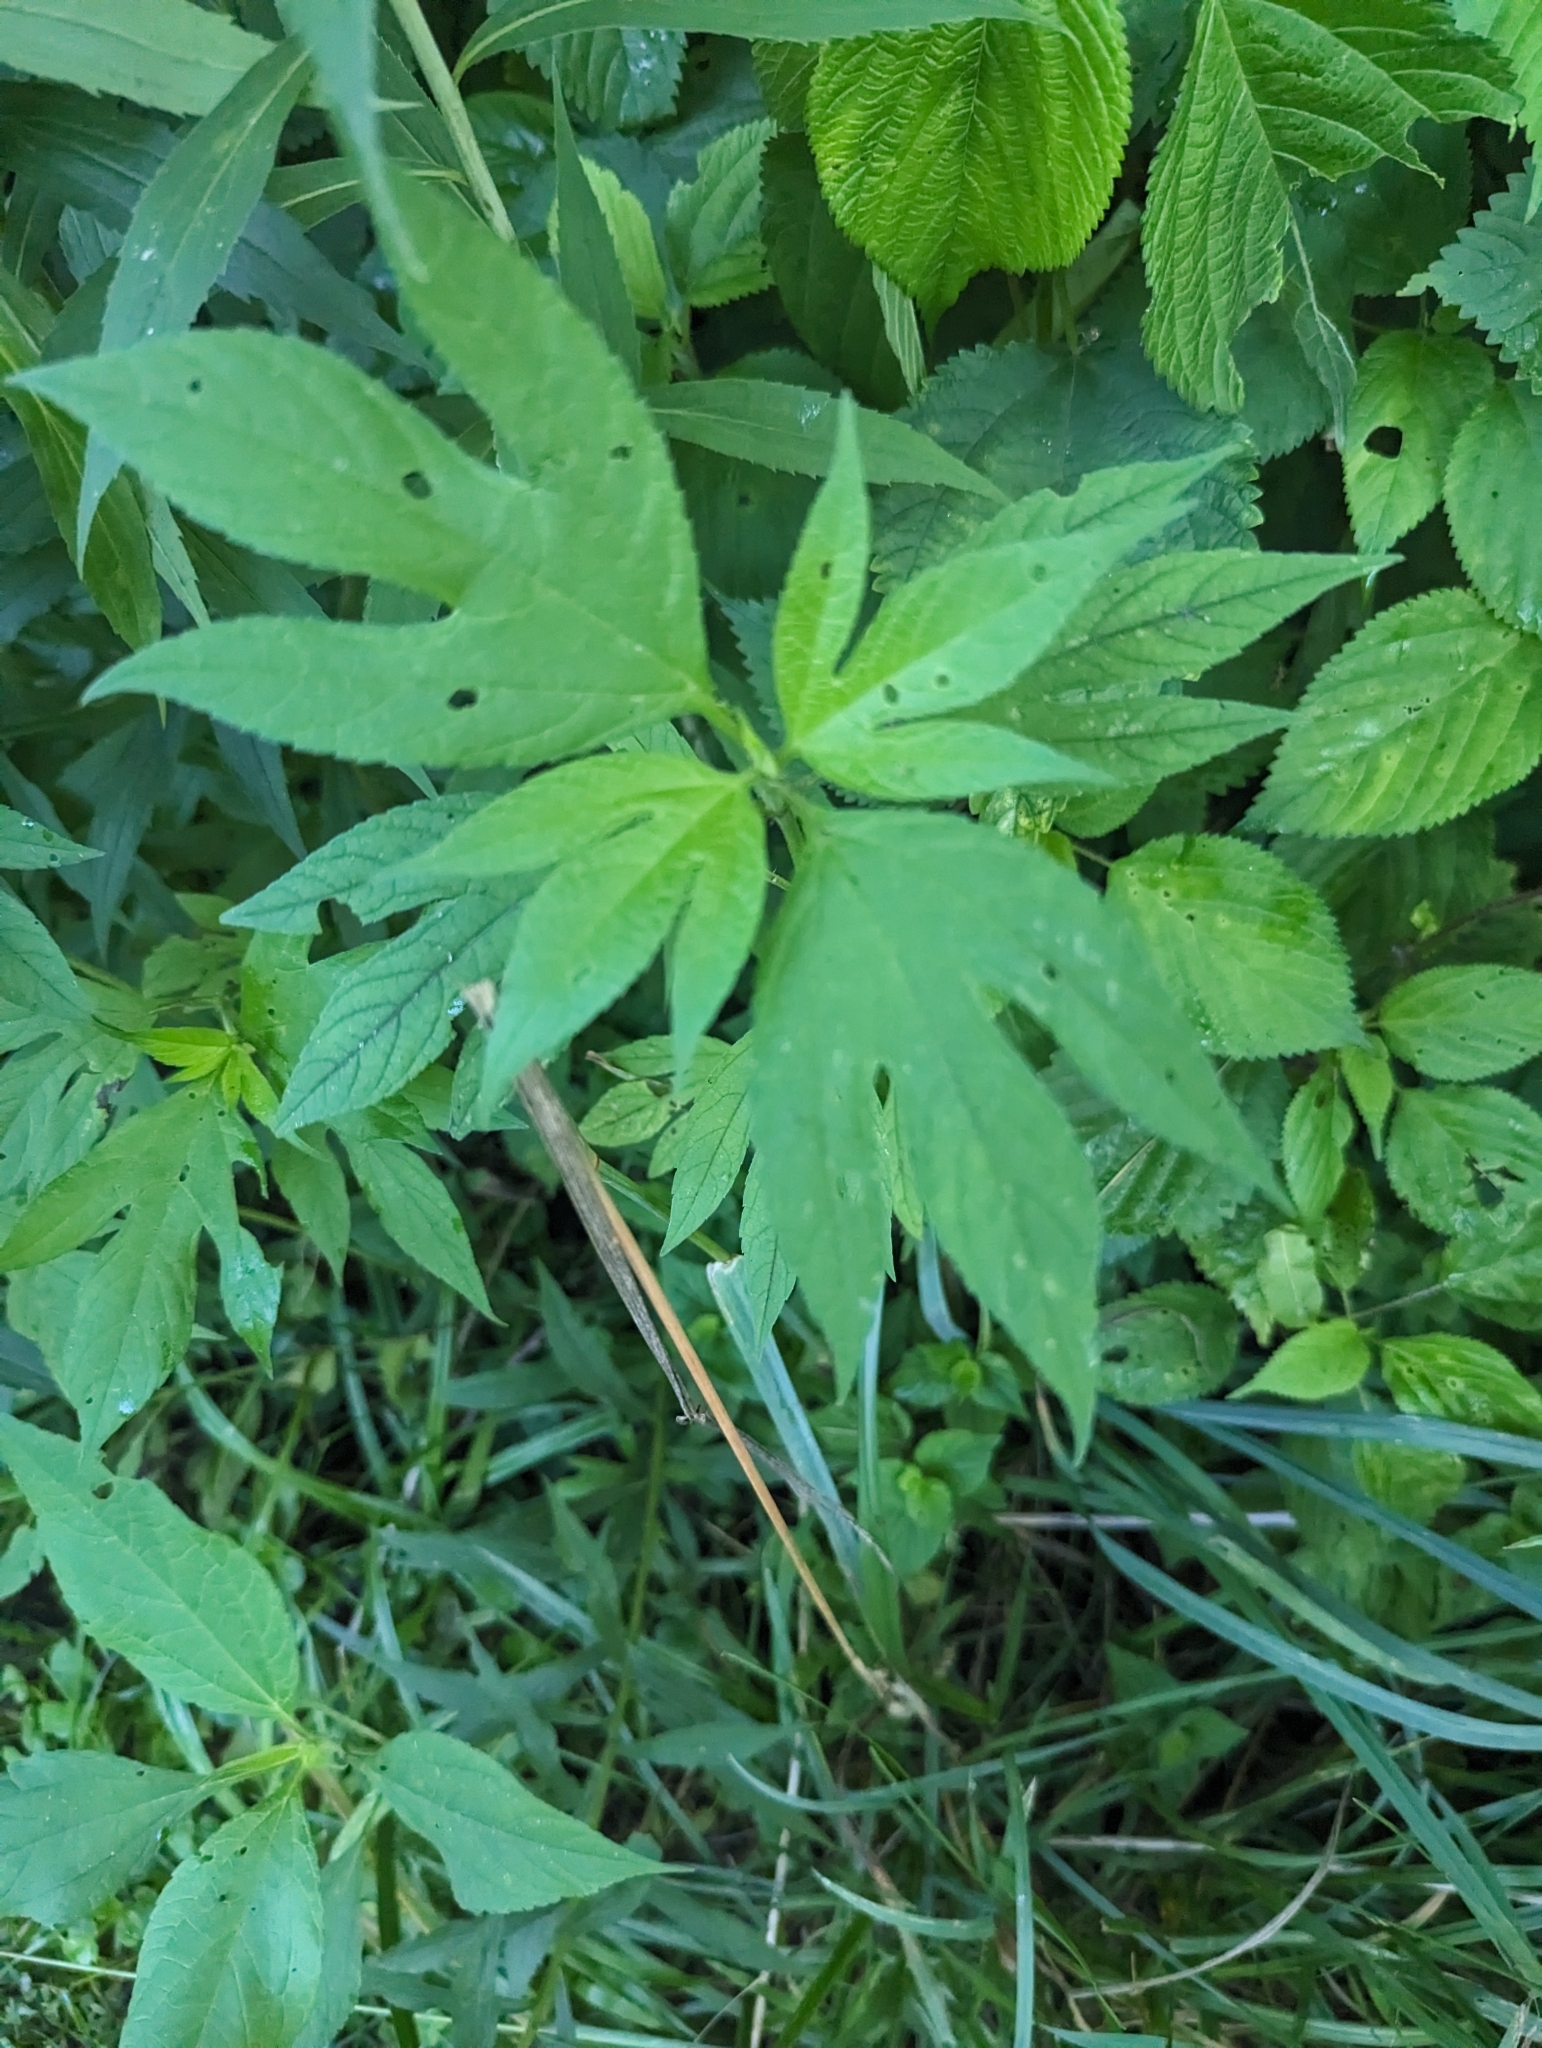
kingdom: Plantae
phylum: Tracheophyta
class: Magnoliopsida
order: Asterales
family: Asteraceae
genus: Ambrosia
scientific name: Ambrosia trifida
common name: Giant ragweed
